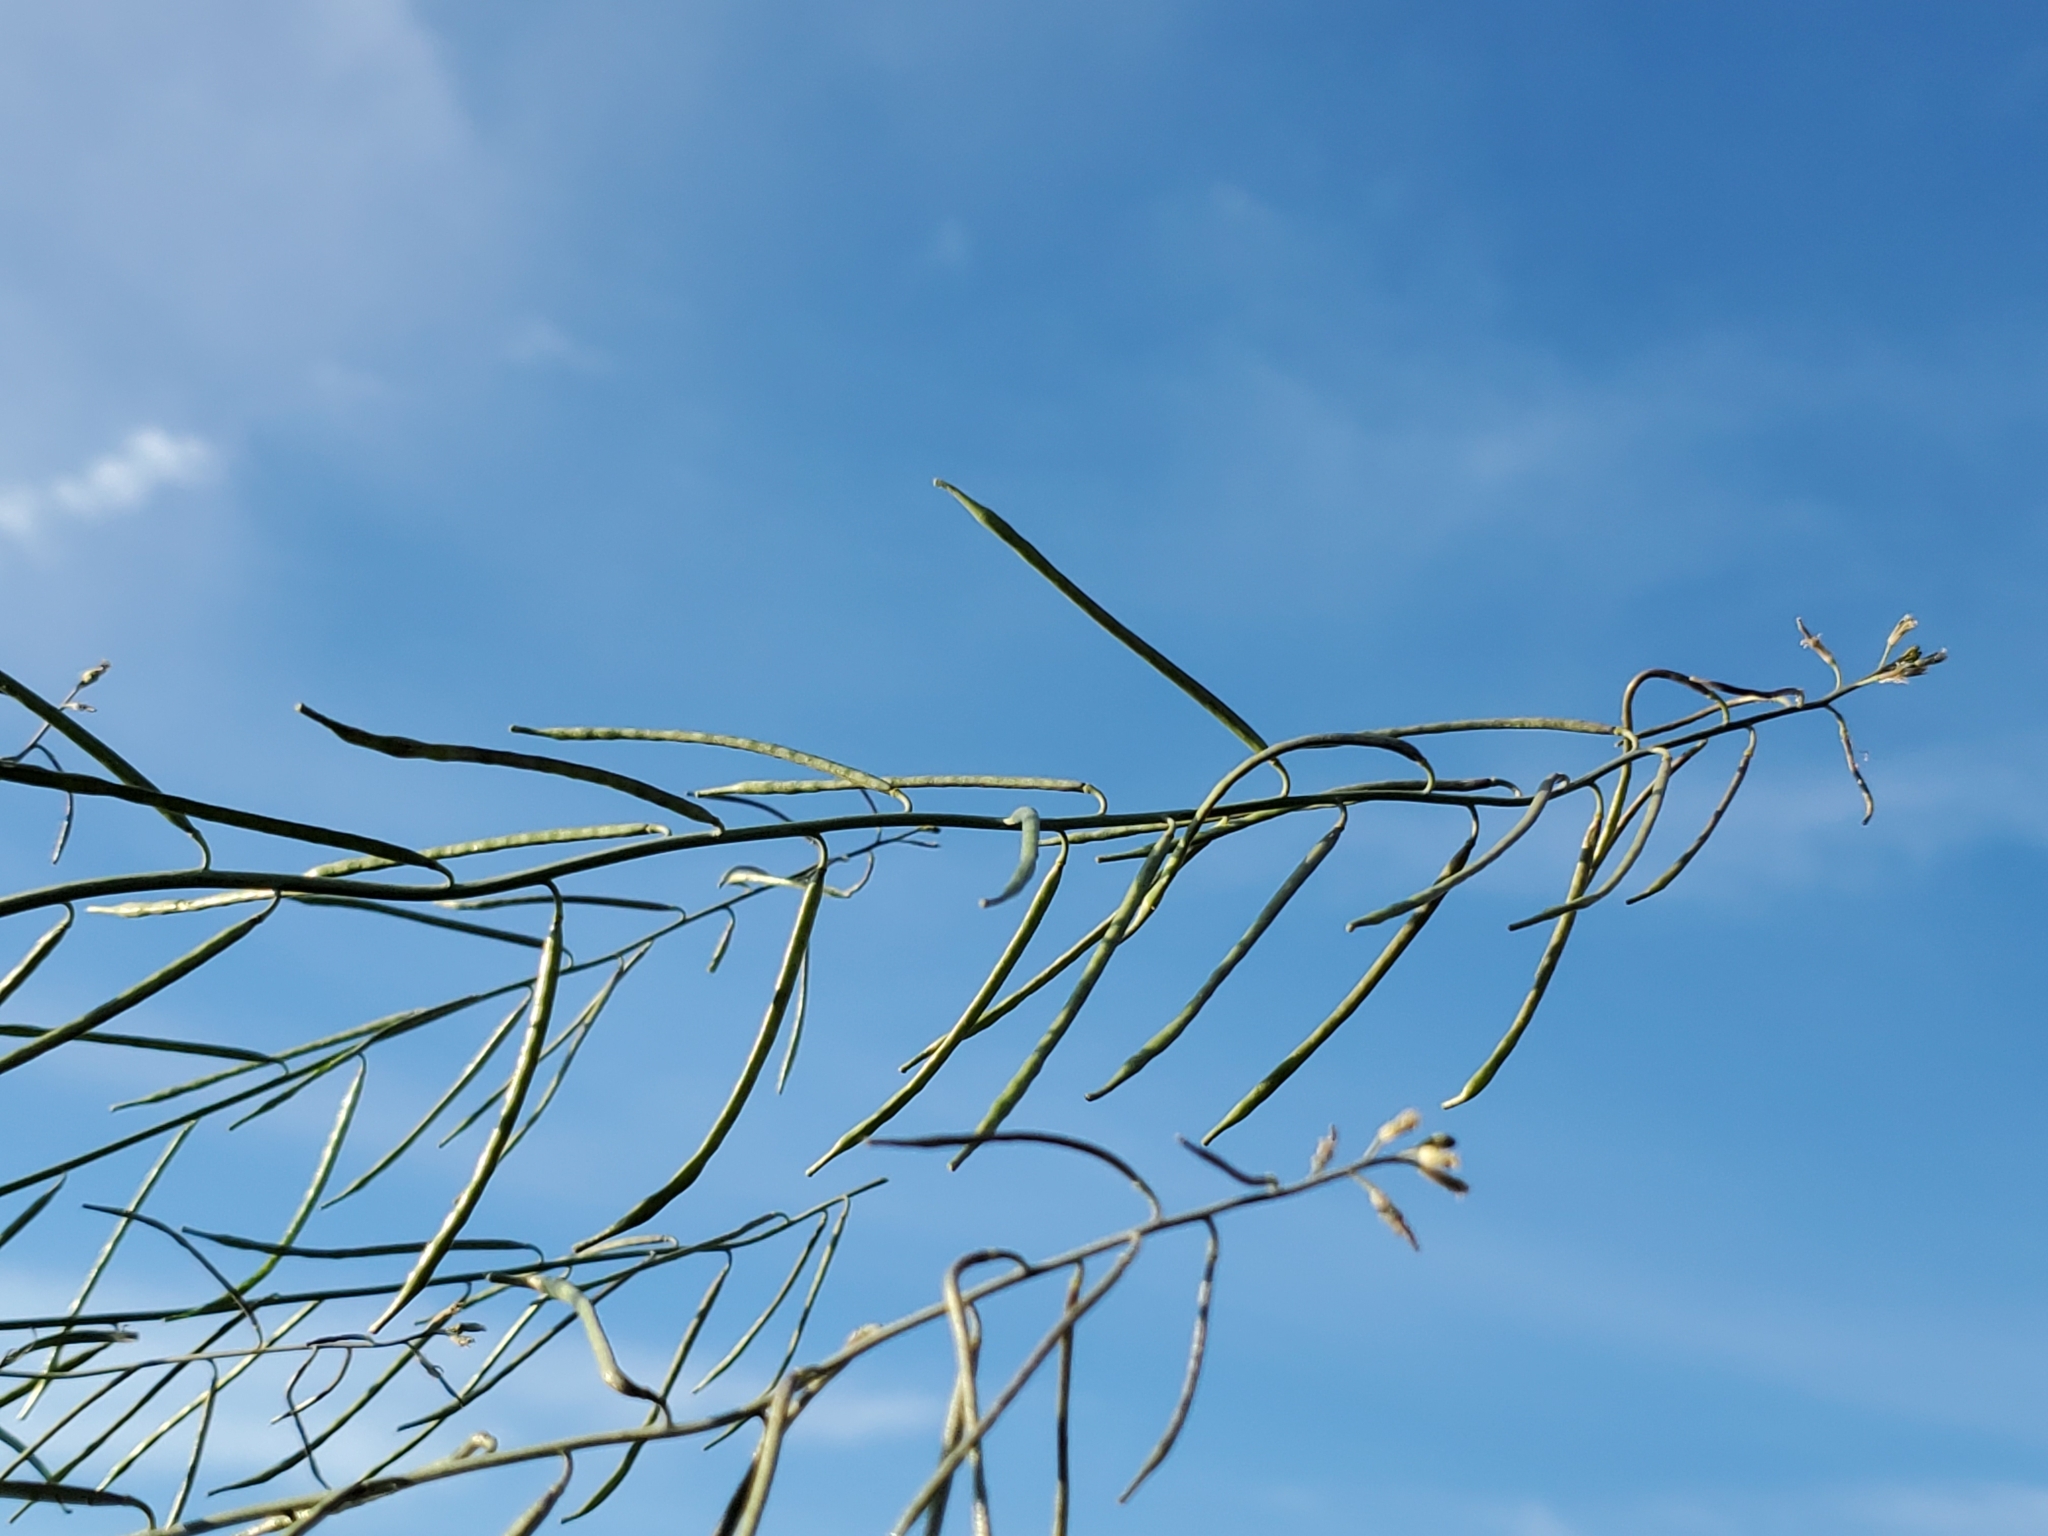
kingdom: Plantae
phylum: Tracheophyta
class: Magnoliopsida
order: Brassicales
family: Brassicaceae
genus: Streptanthus
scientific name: Streptanthus longirostris
